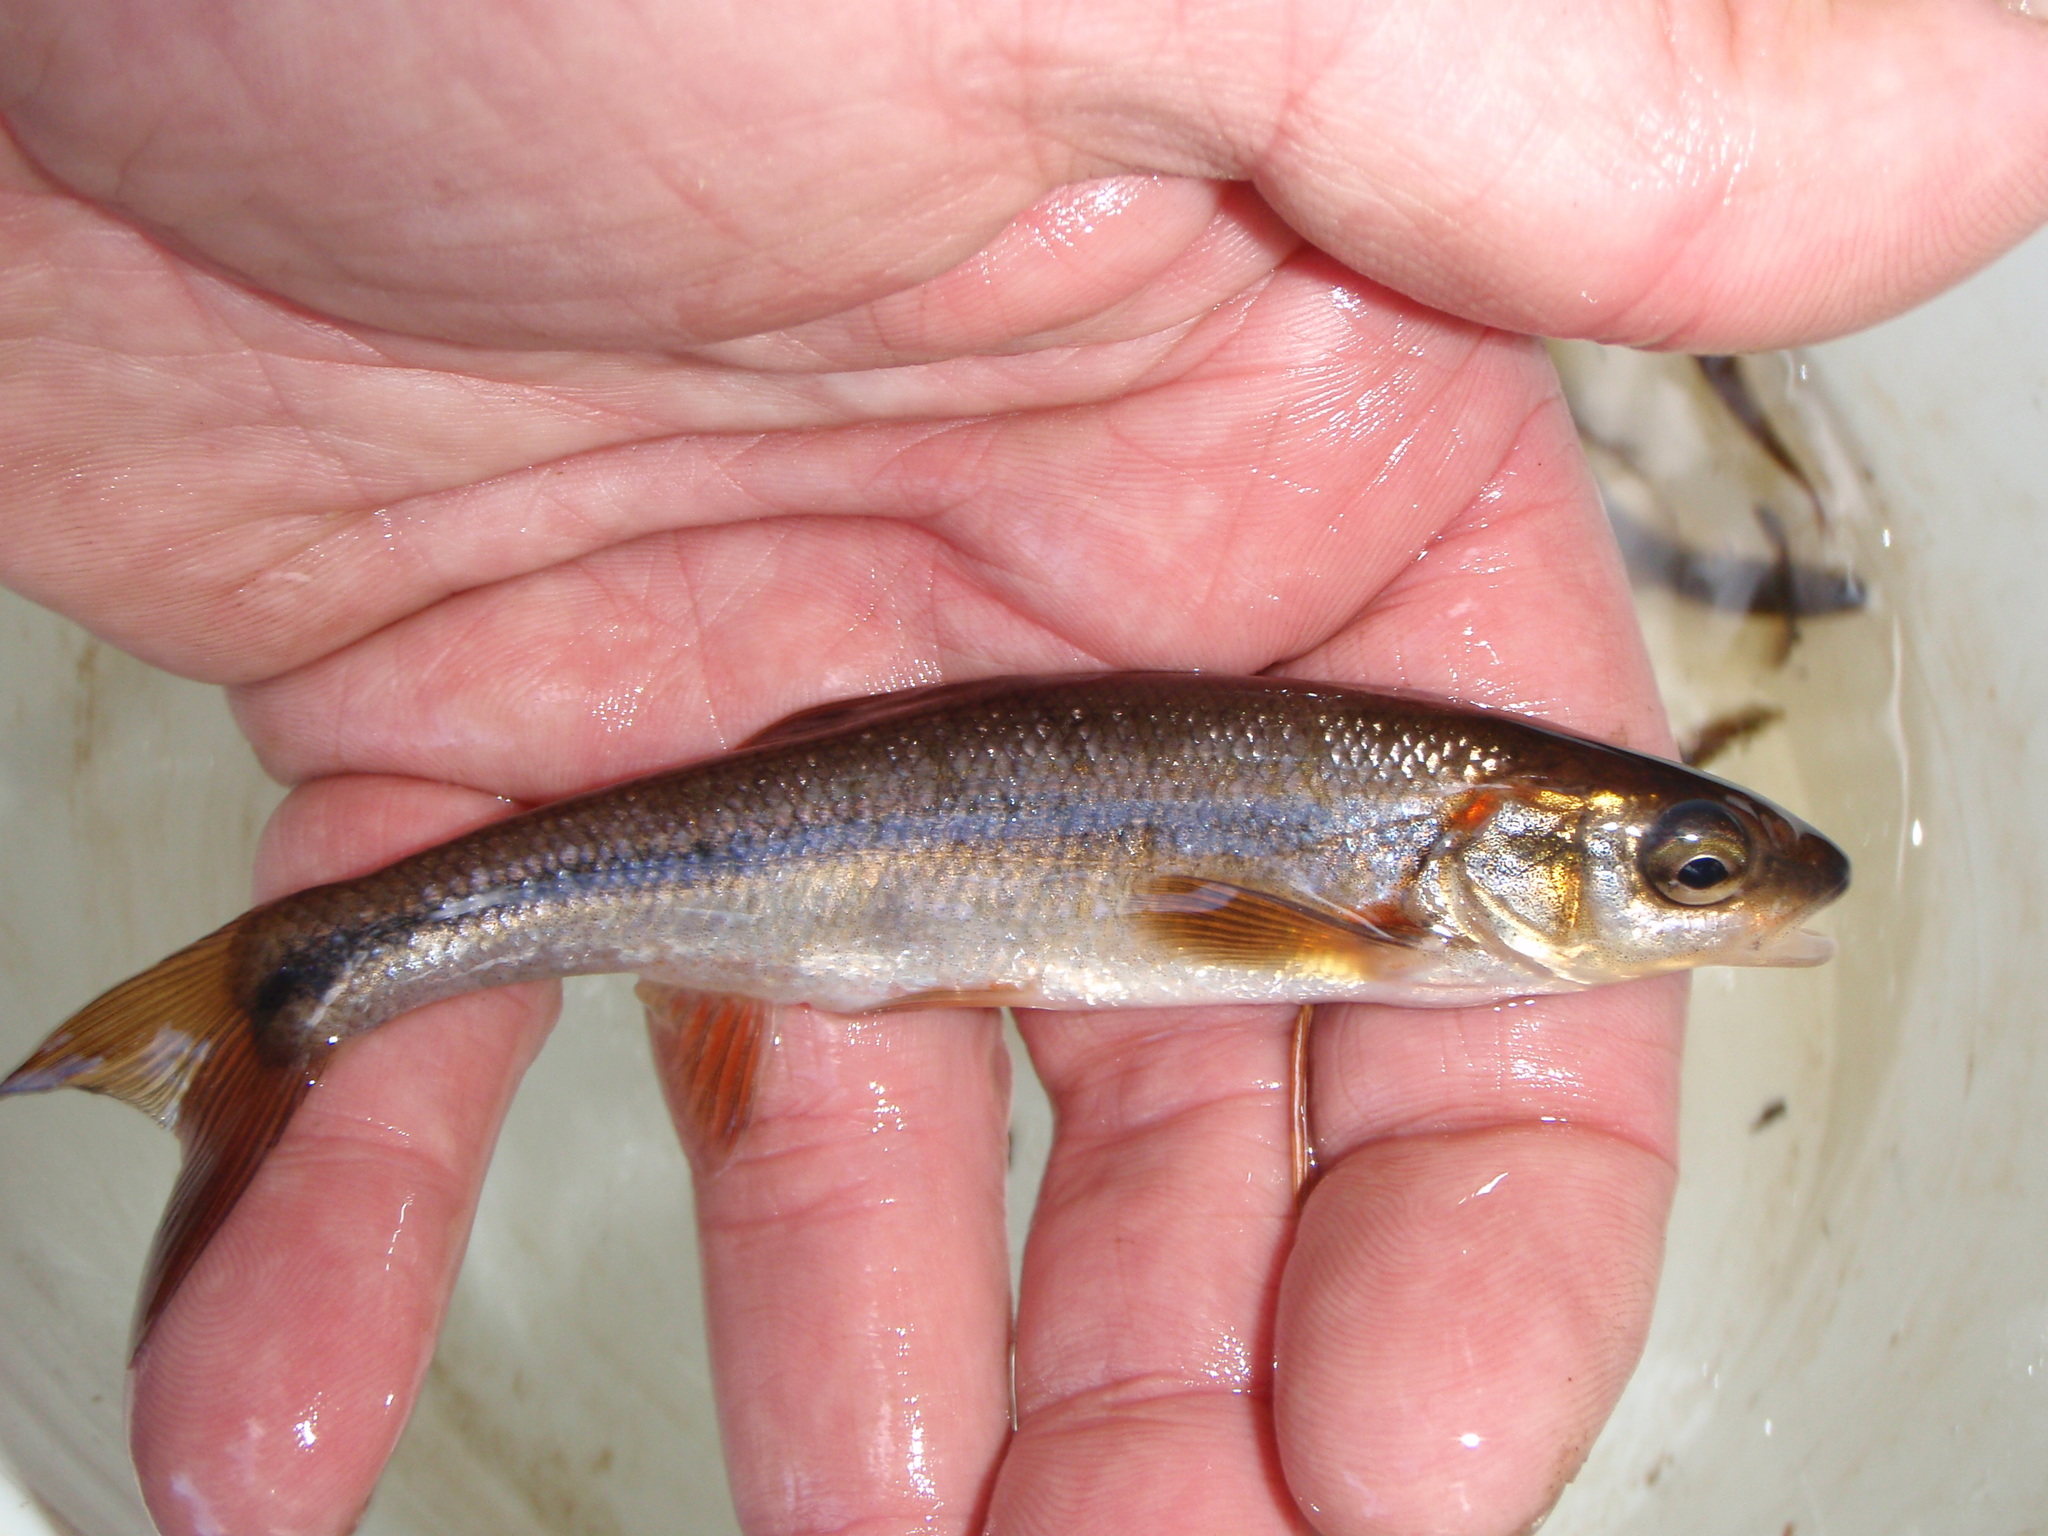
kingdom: Animalia
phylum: Chordata
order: Cypriniformes
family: Cyprinidae
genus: Couesius
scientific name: Couesius plumbeus
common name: Lake chub
